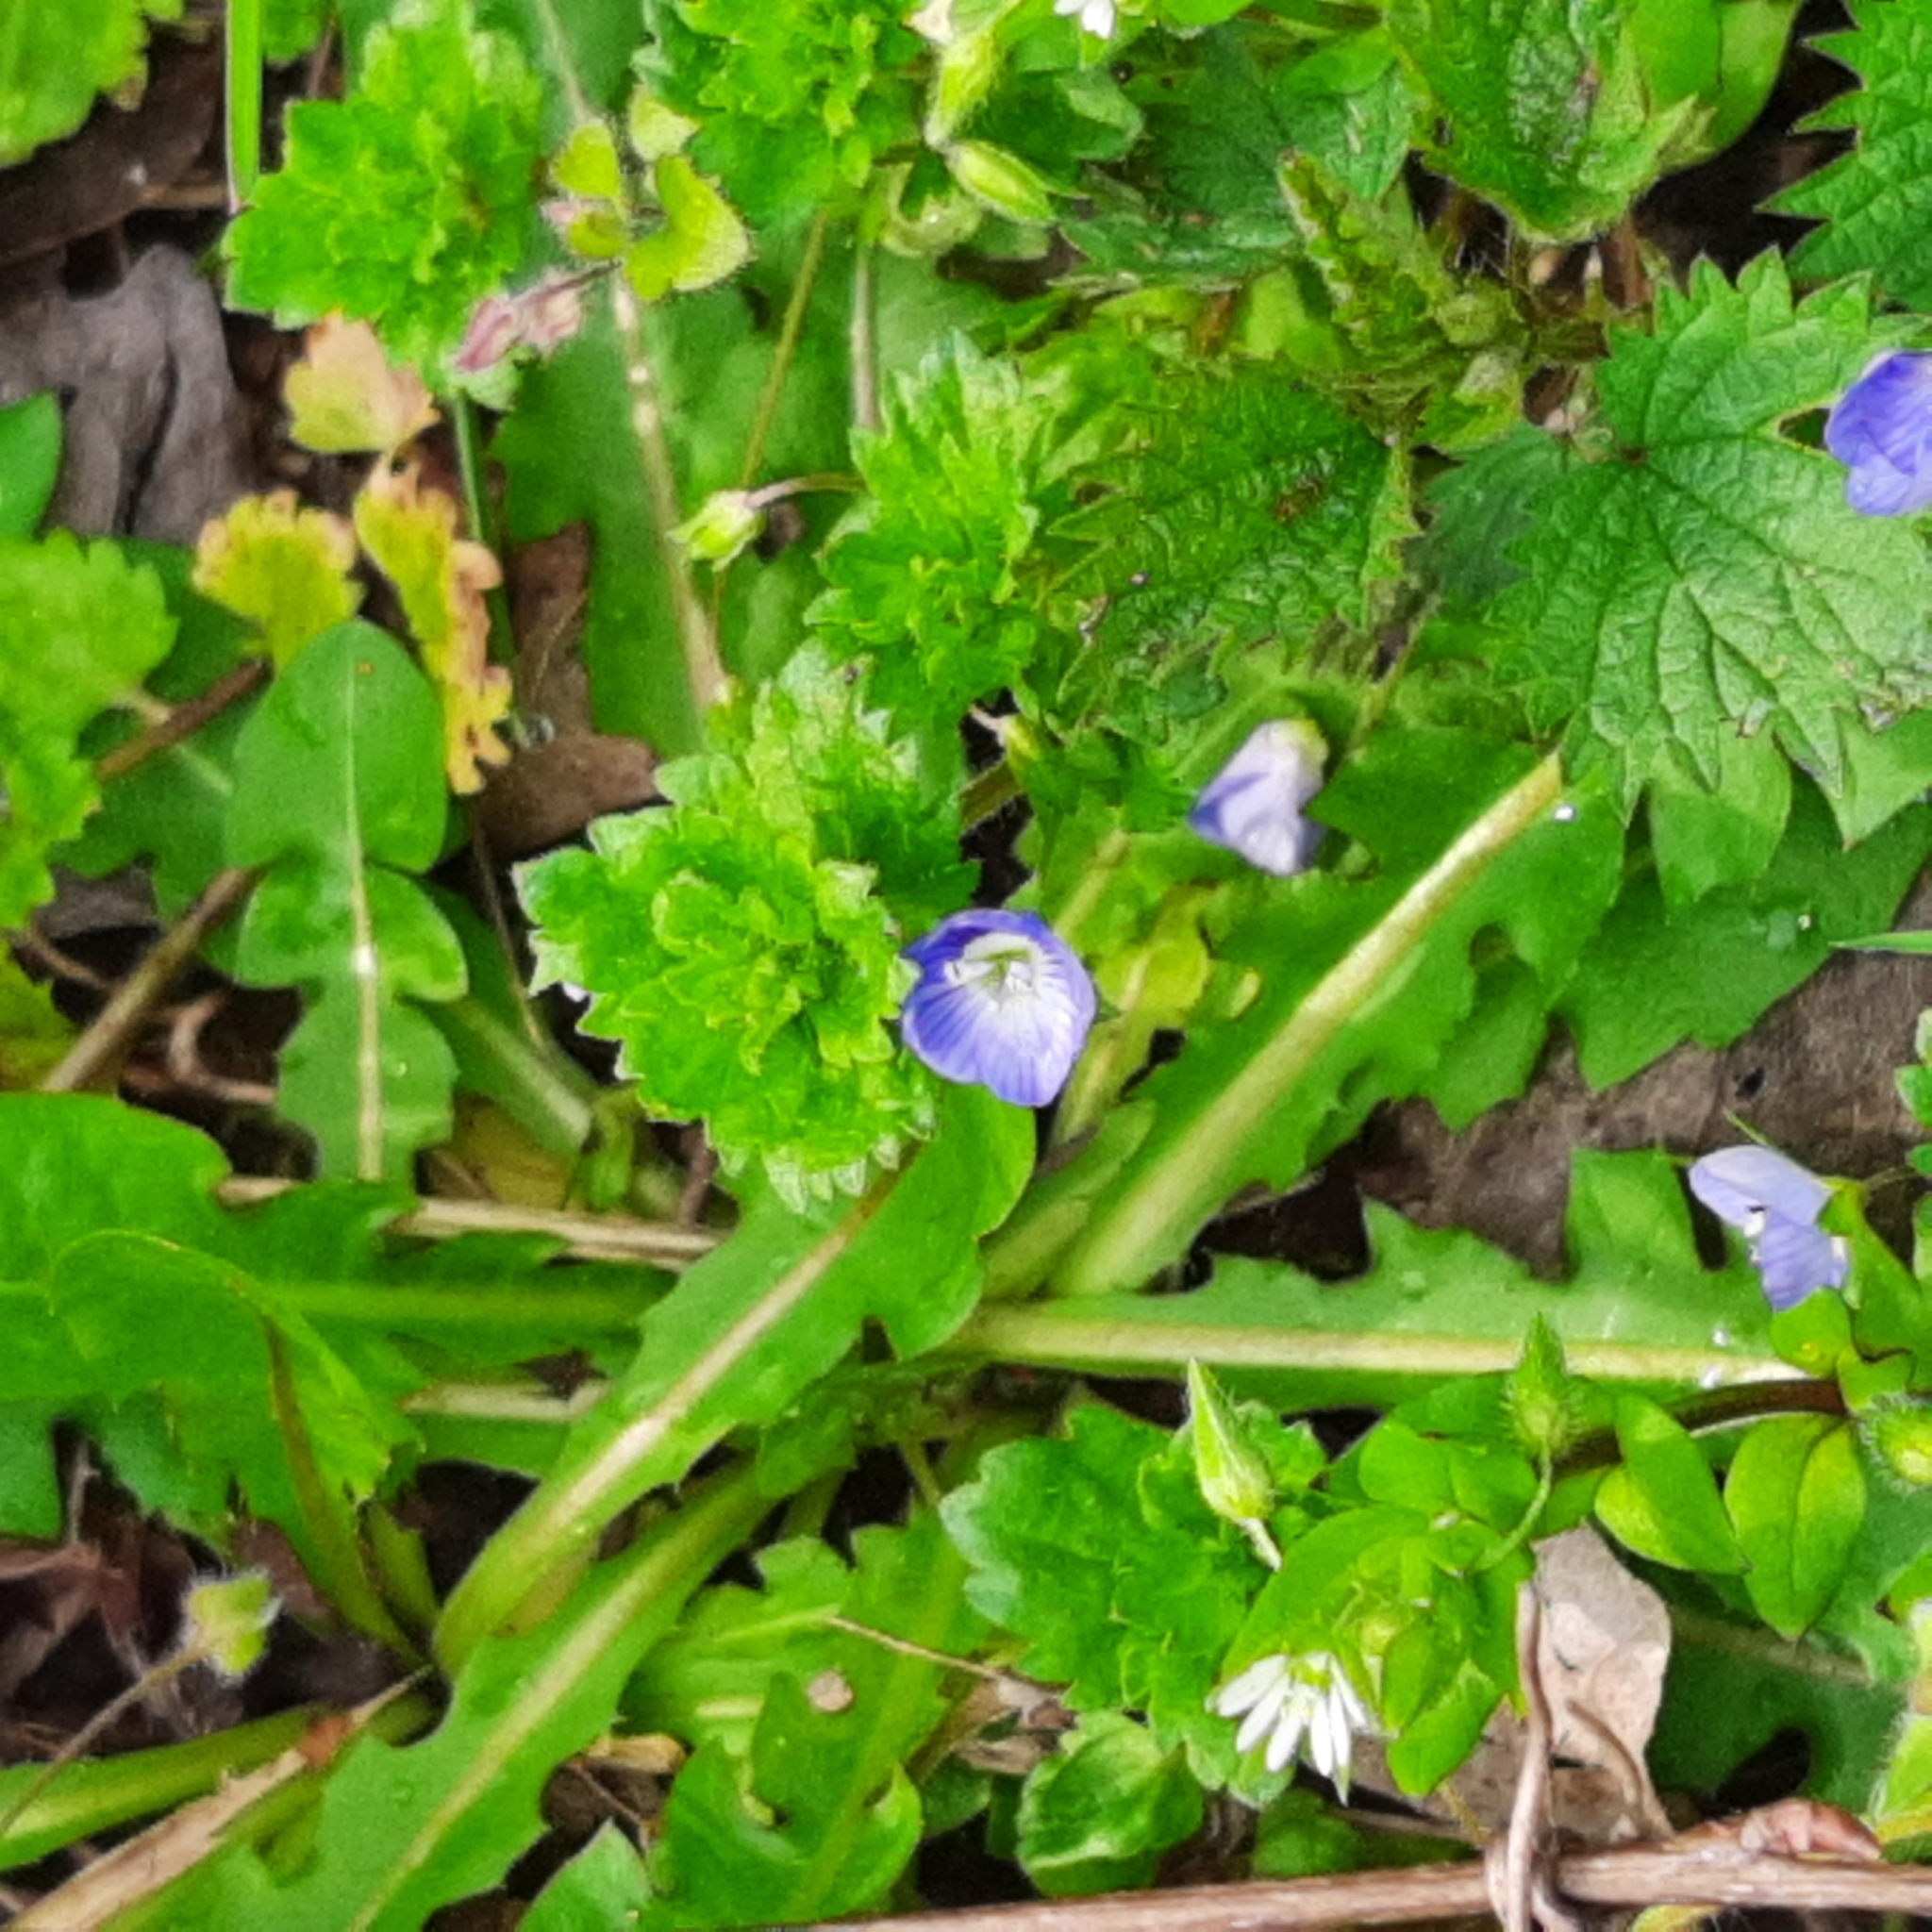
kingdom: Plantae
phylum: Tracheophyta
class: Magnoliopsida
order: Lamiales
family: Plantaginaceae
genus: Veronica
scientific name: Veronica persica
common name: Common field-speedwell
